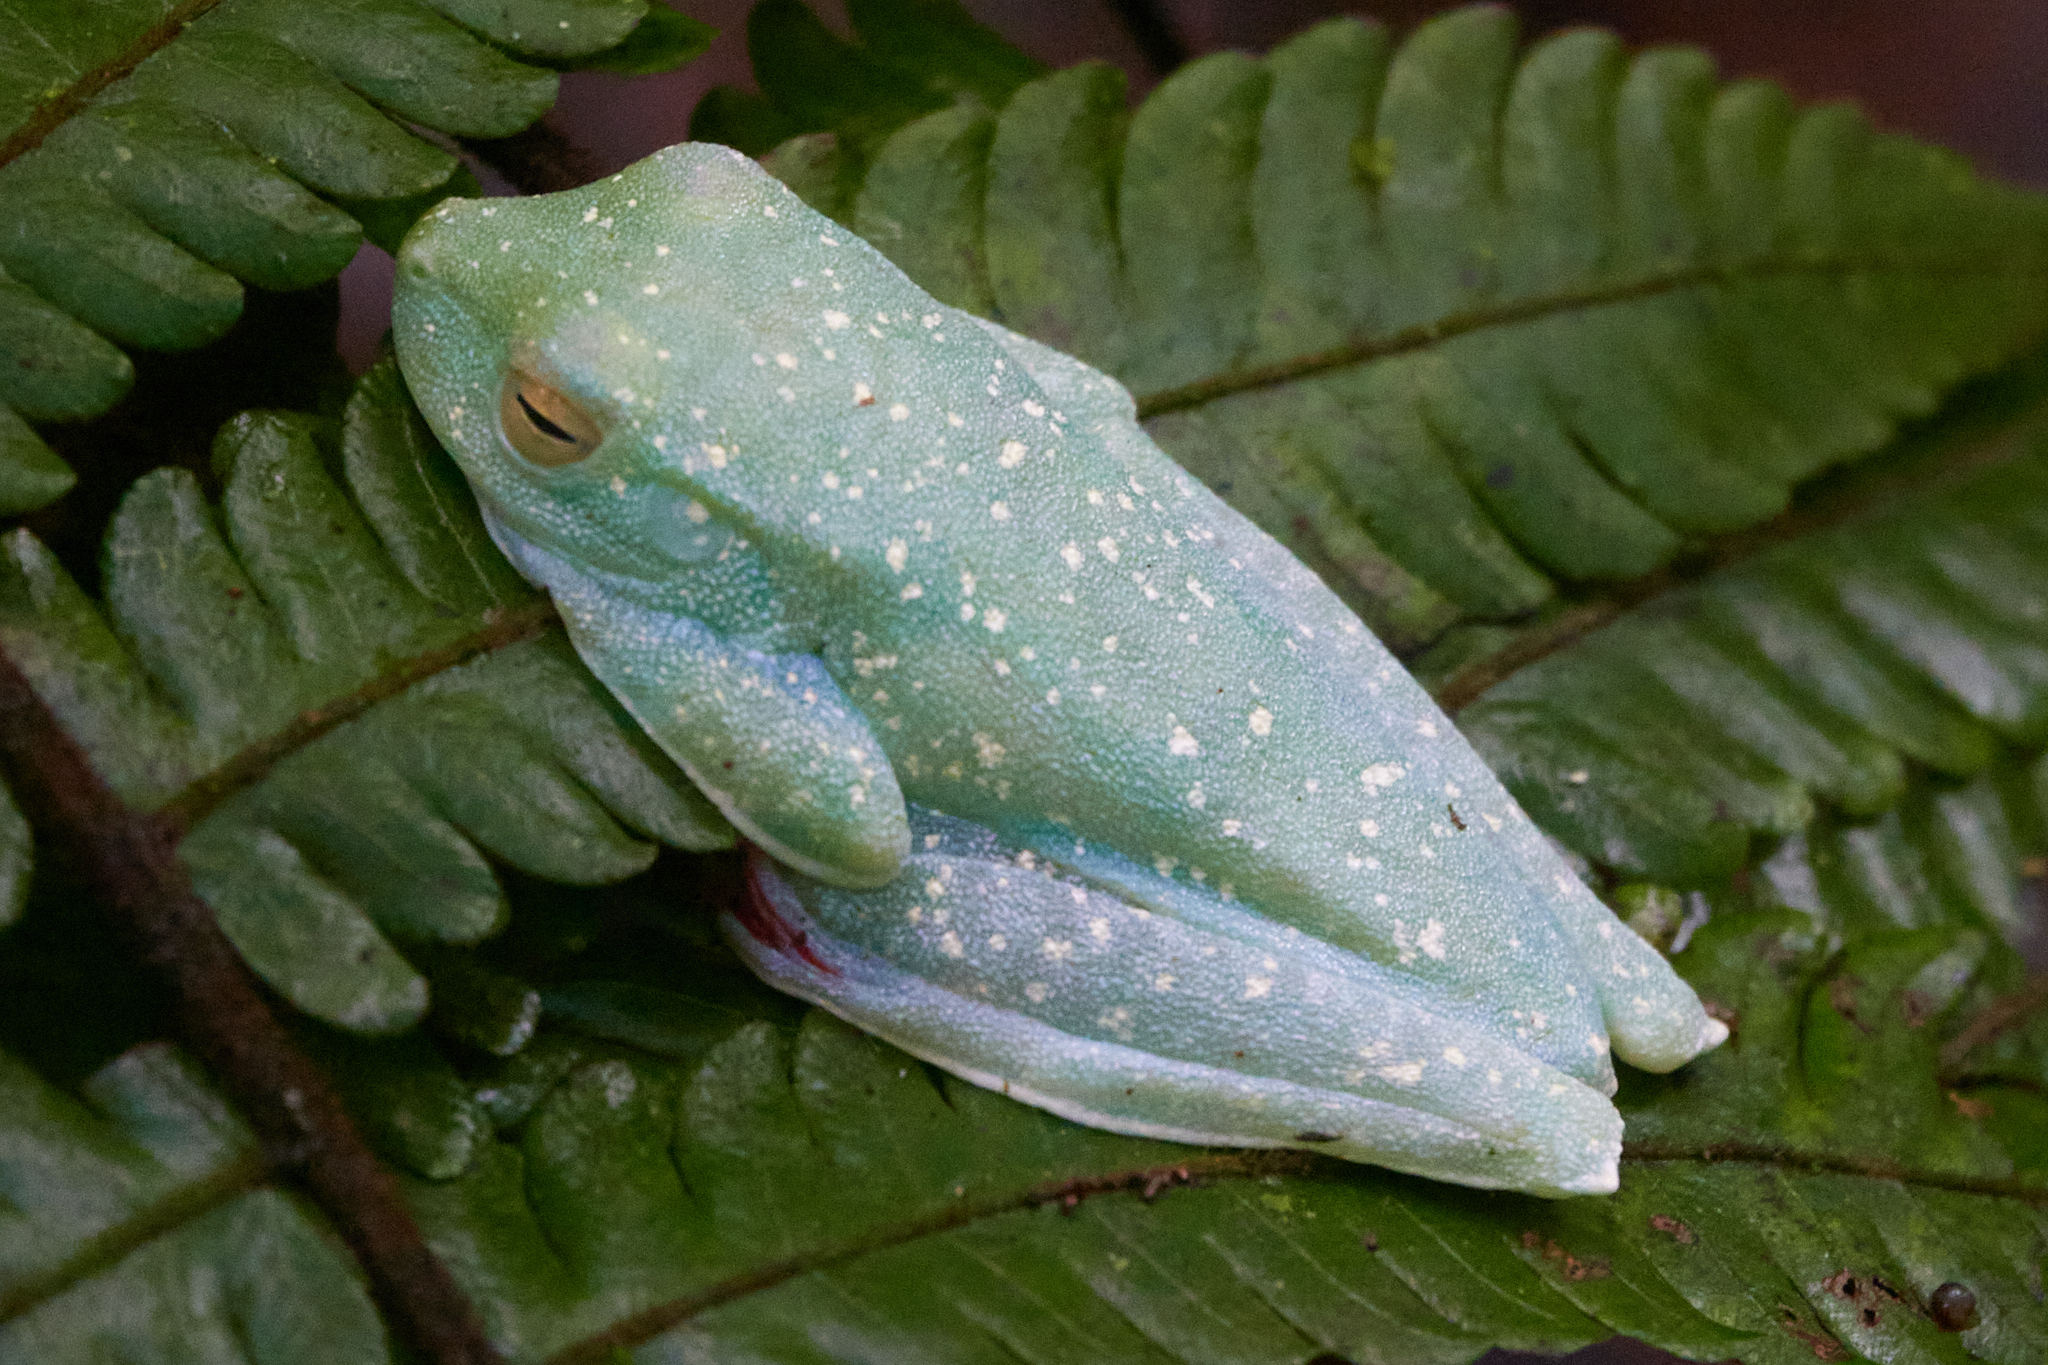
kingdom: Animalia
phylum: Chordata
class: Amphibia
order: Anura
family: Hylidae
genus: Boana
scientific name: Boana rufitela
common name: Canal zone treefrog
